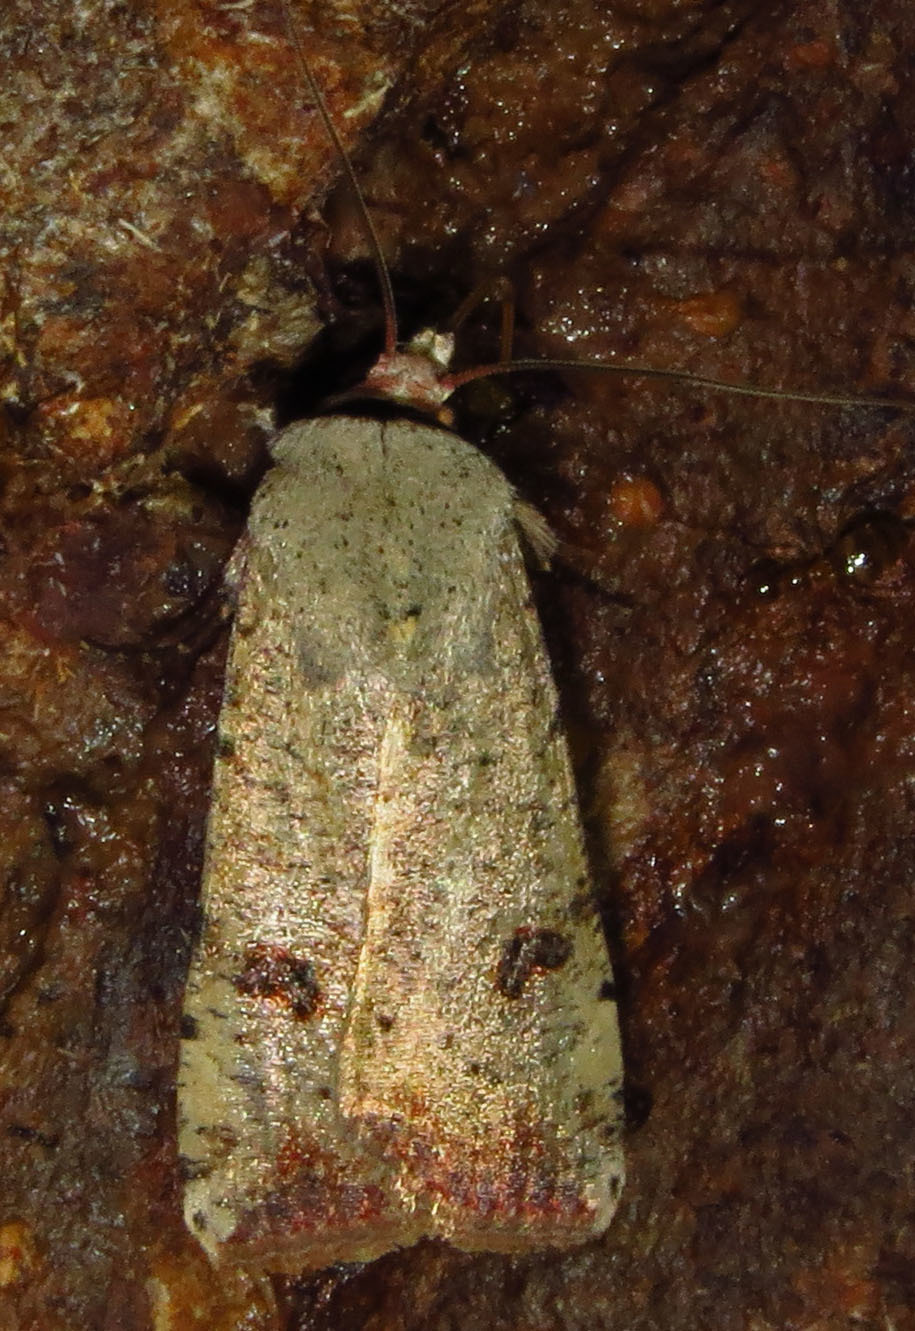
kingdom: Animalia
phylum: Arthropoda
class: Insecta
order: Lepidoptera
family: Noctuidae
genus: Anicla
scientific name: Anicla infecta
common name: Green cutworm
